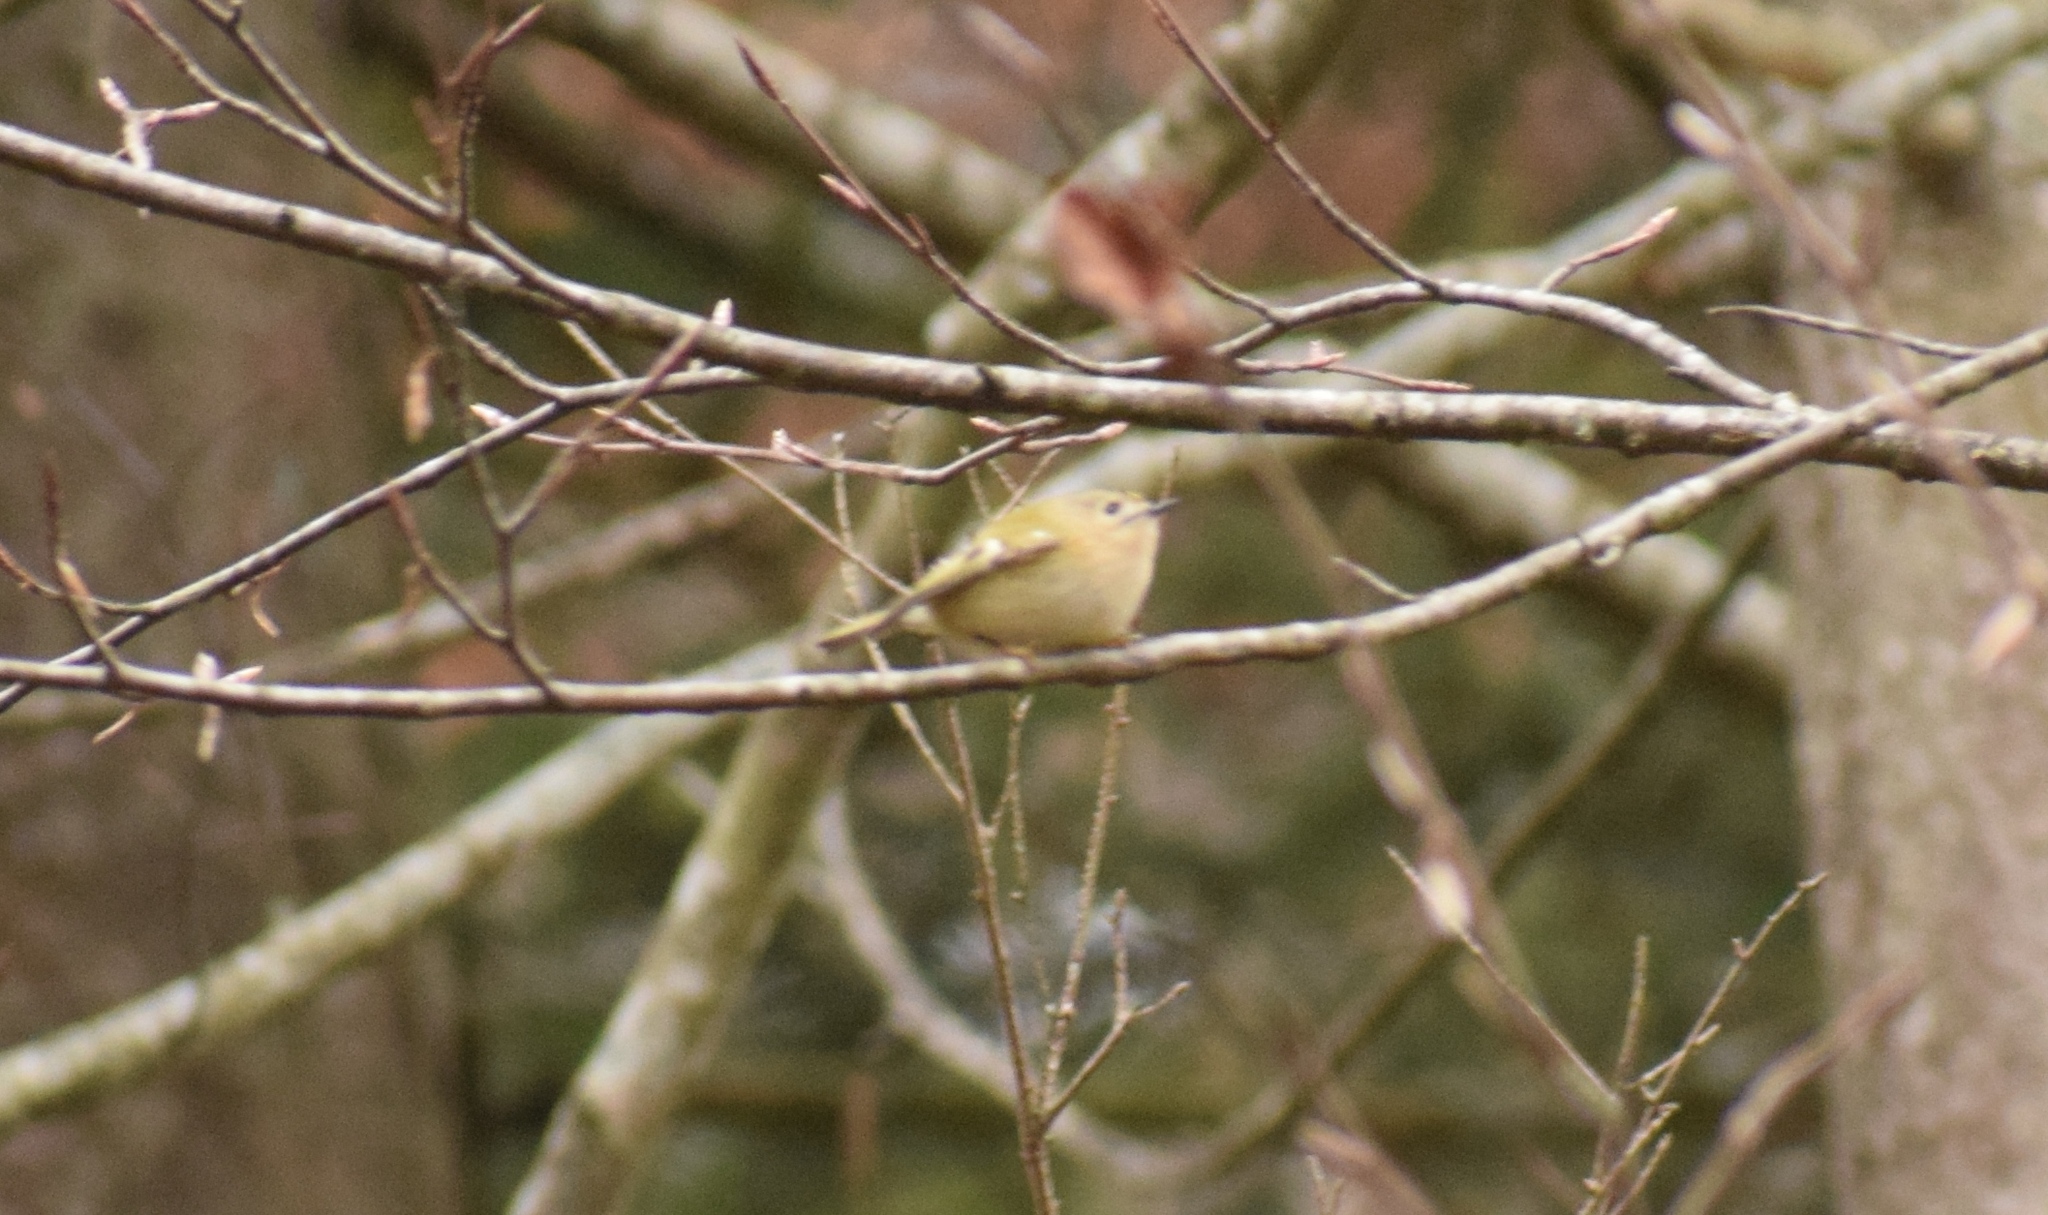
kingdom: Animalia
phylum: Chordata
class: Aves
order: Passeriformes
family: Regulidae
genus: Regulus
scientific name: Regulus regulus
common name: Goldcrest
